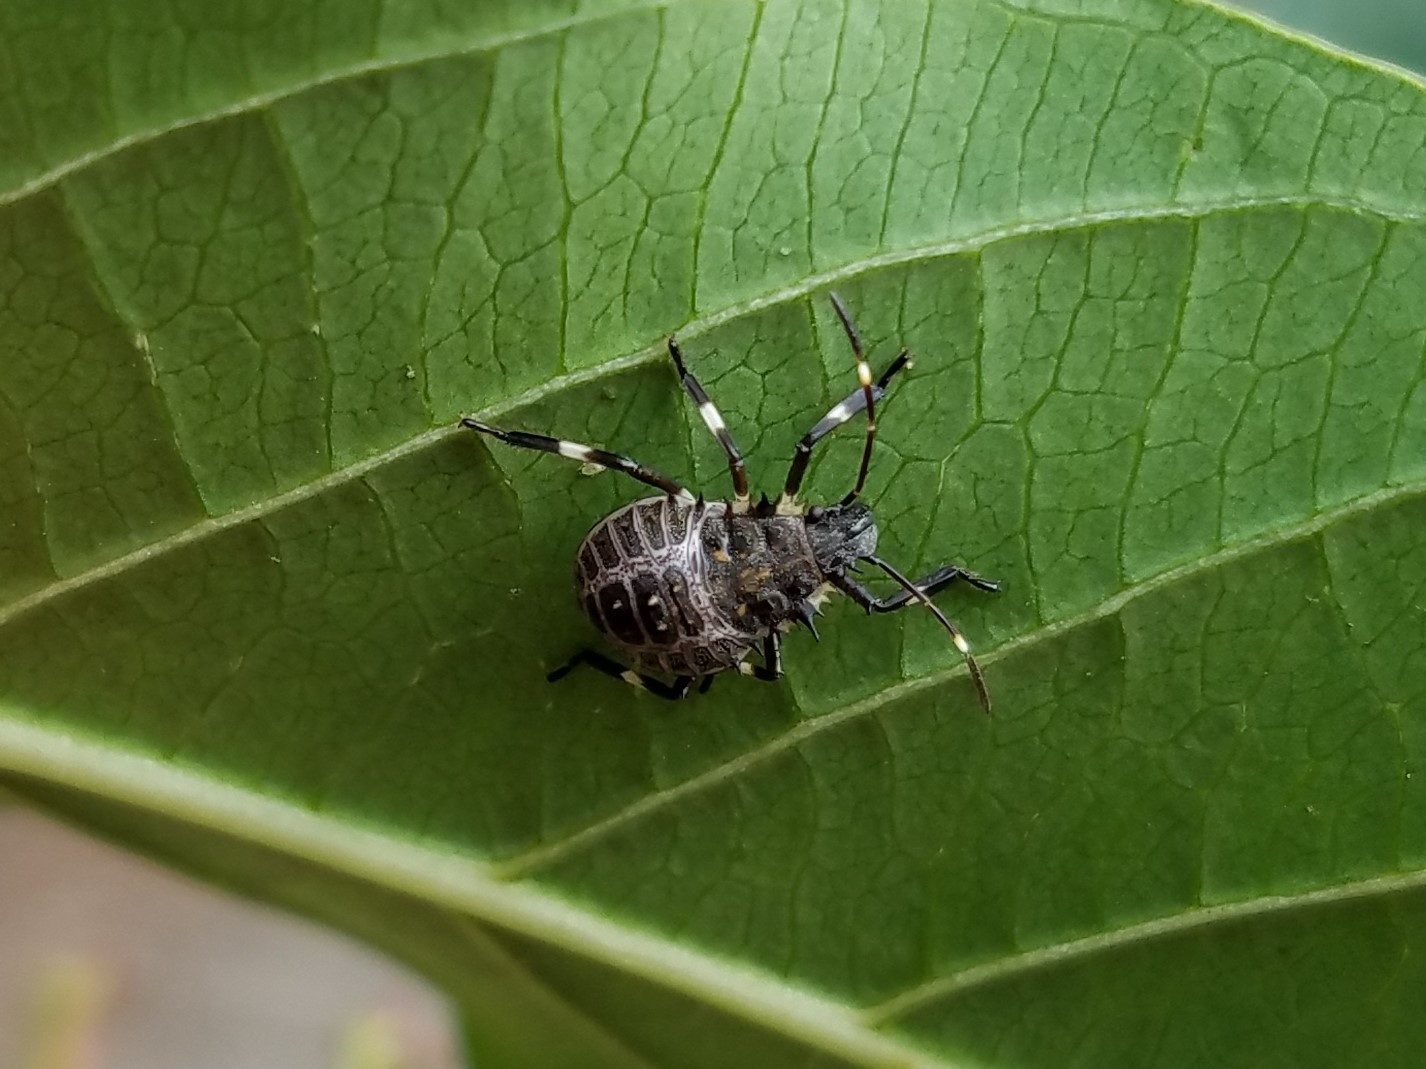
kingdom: Animalia
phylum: Arthropoda
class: Insecta
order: Hemiptera
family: Pentatomidae
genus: Halyomorpha
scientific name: Halyomorpha halys
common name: Brown marmorated stink bug
